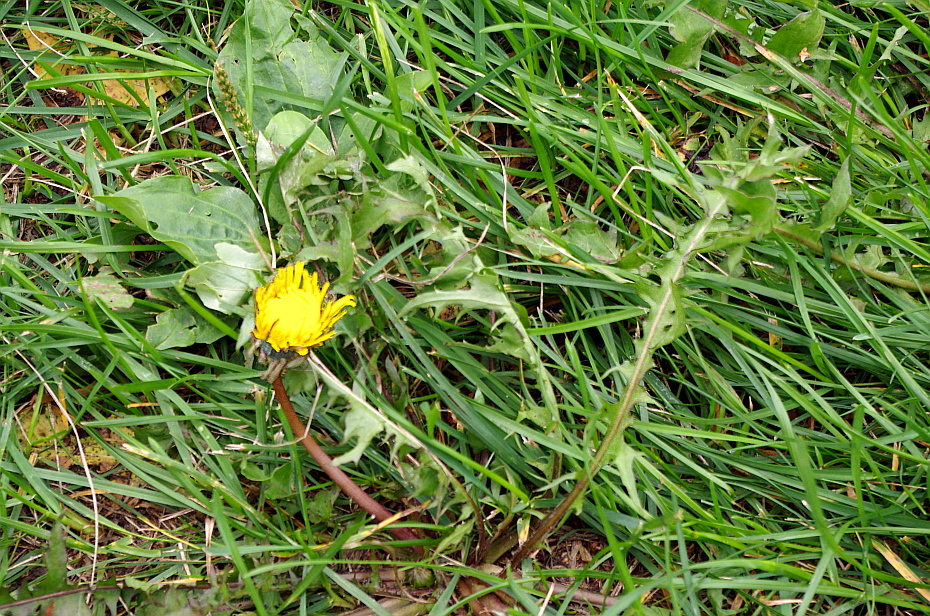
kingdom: Plantae
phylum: Tracheophyta
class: Magnoliopsida
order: Asterales
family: Asteraceae
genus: Taraxacum
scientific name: Taraxacum officinale
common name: Common dandelion
